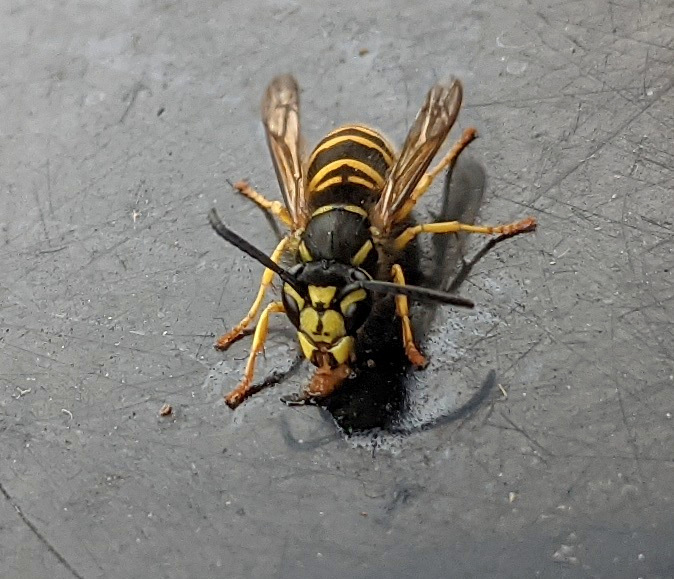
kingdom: Animalia
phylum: Arthropoda
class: Insecta
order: Hymenoptera
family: Vespidae
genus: Vespula
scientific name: Vespula maculifrons
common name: Eastern yellowjacket
